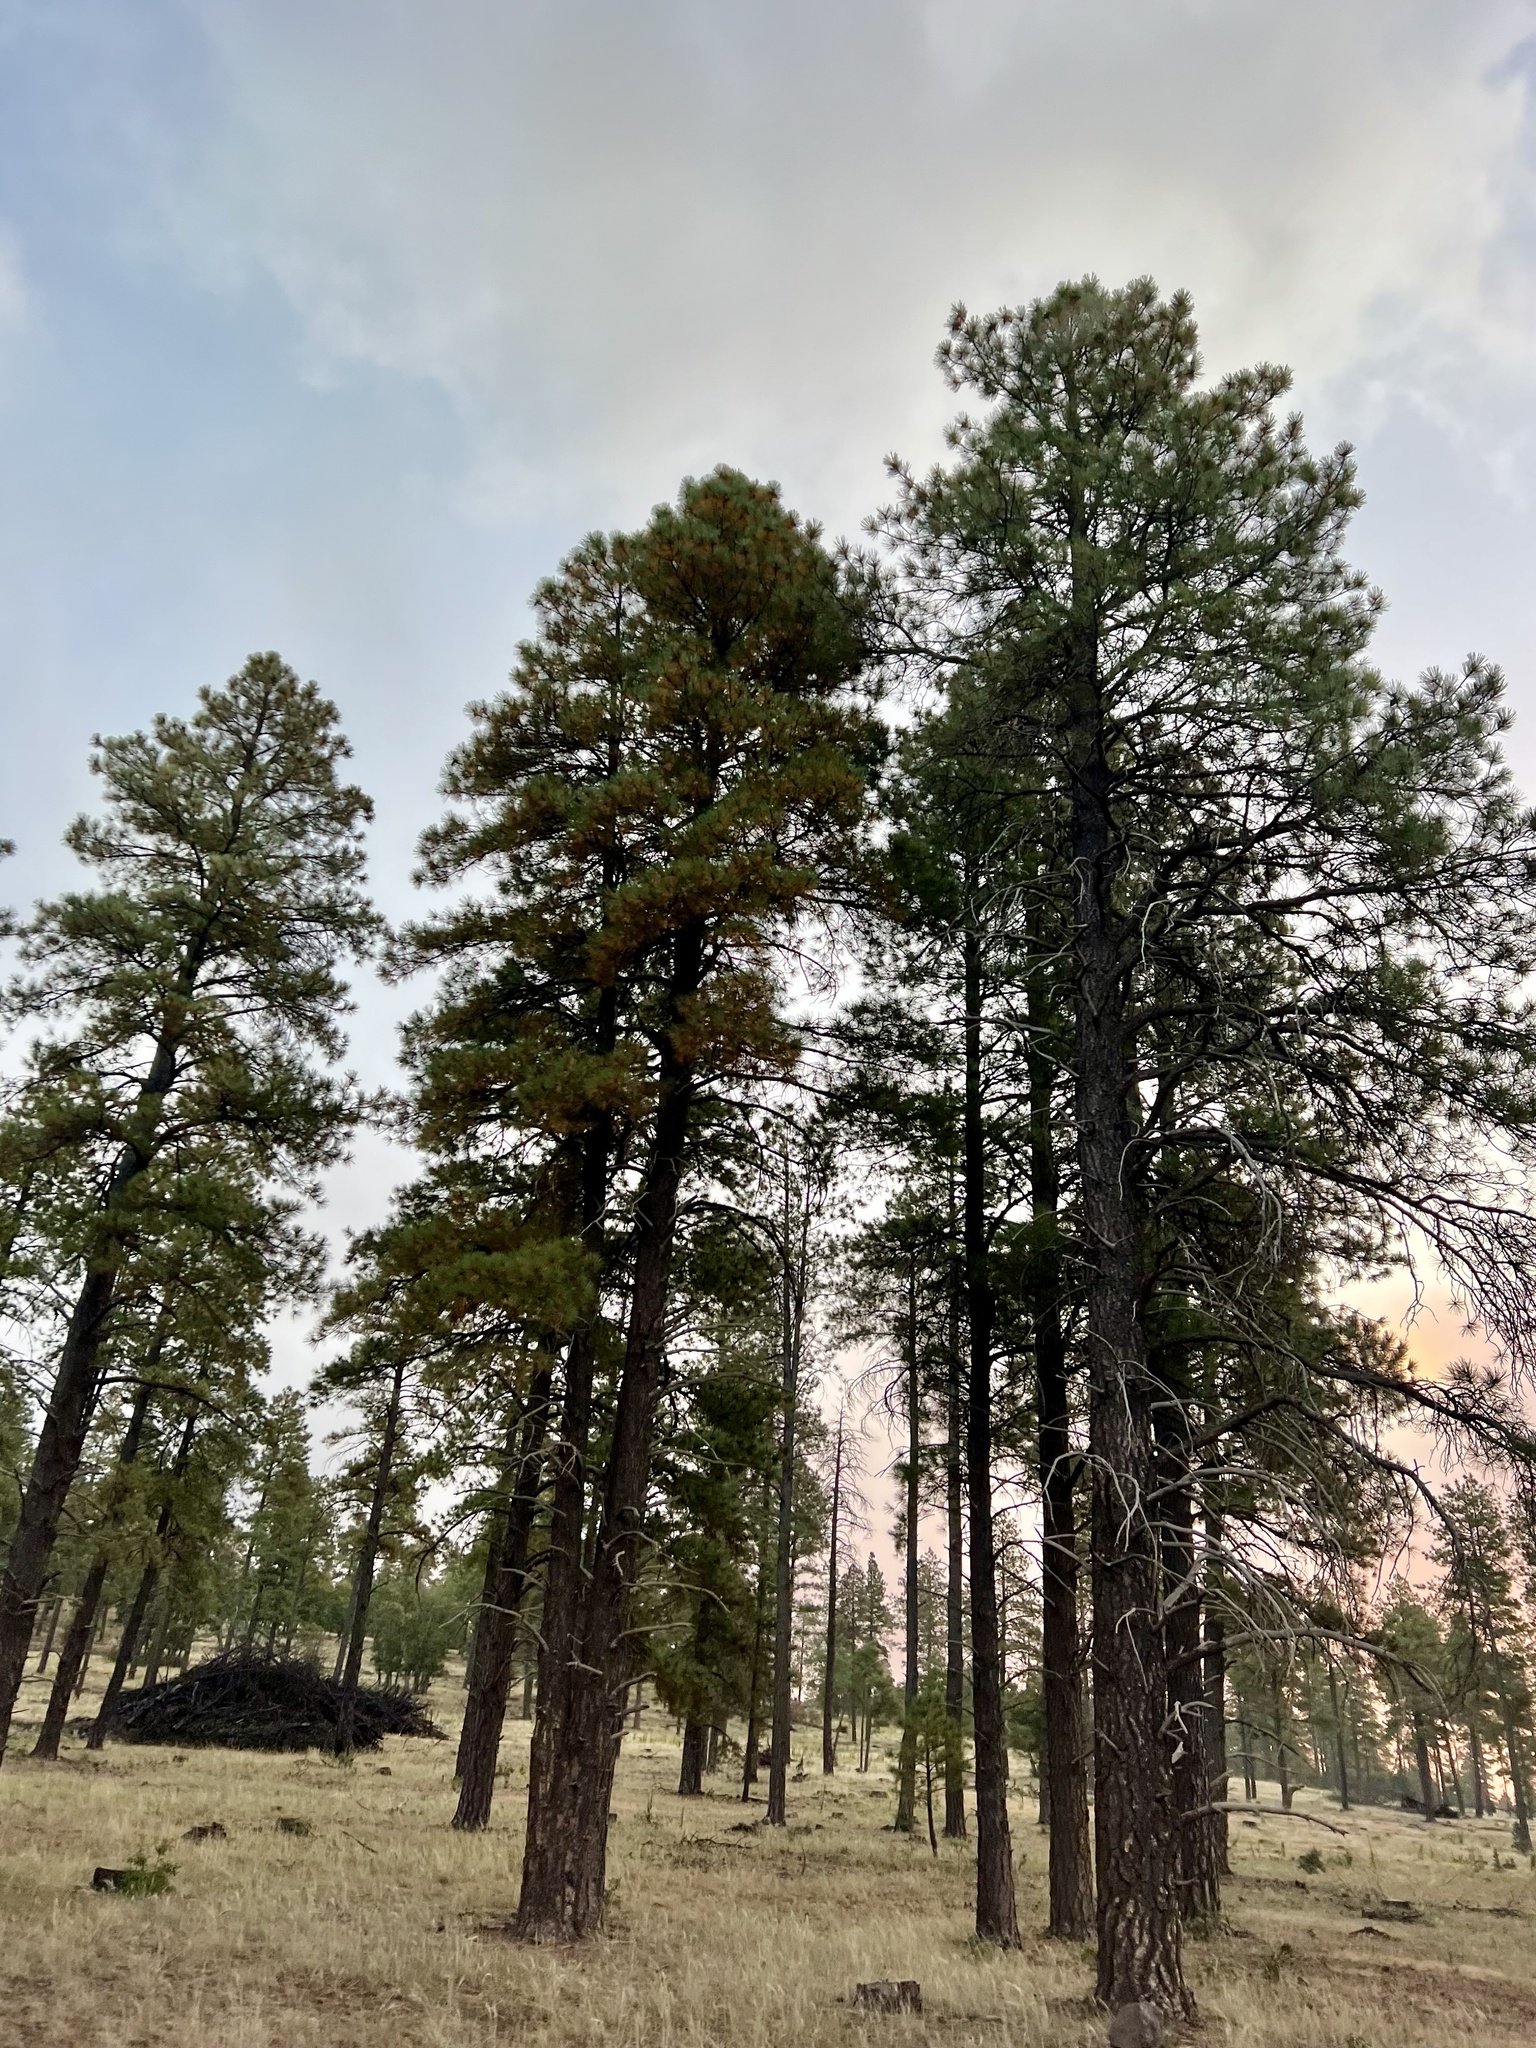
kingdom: Plantae
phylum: Tracheophyta
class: Pinopsida
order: Pinales
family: Pinaceae
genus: Pinus
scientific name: Pinus ponderosa
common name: Western yellow-pine
